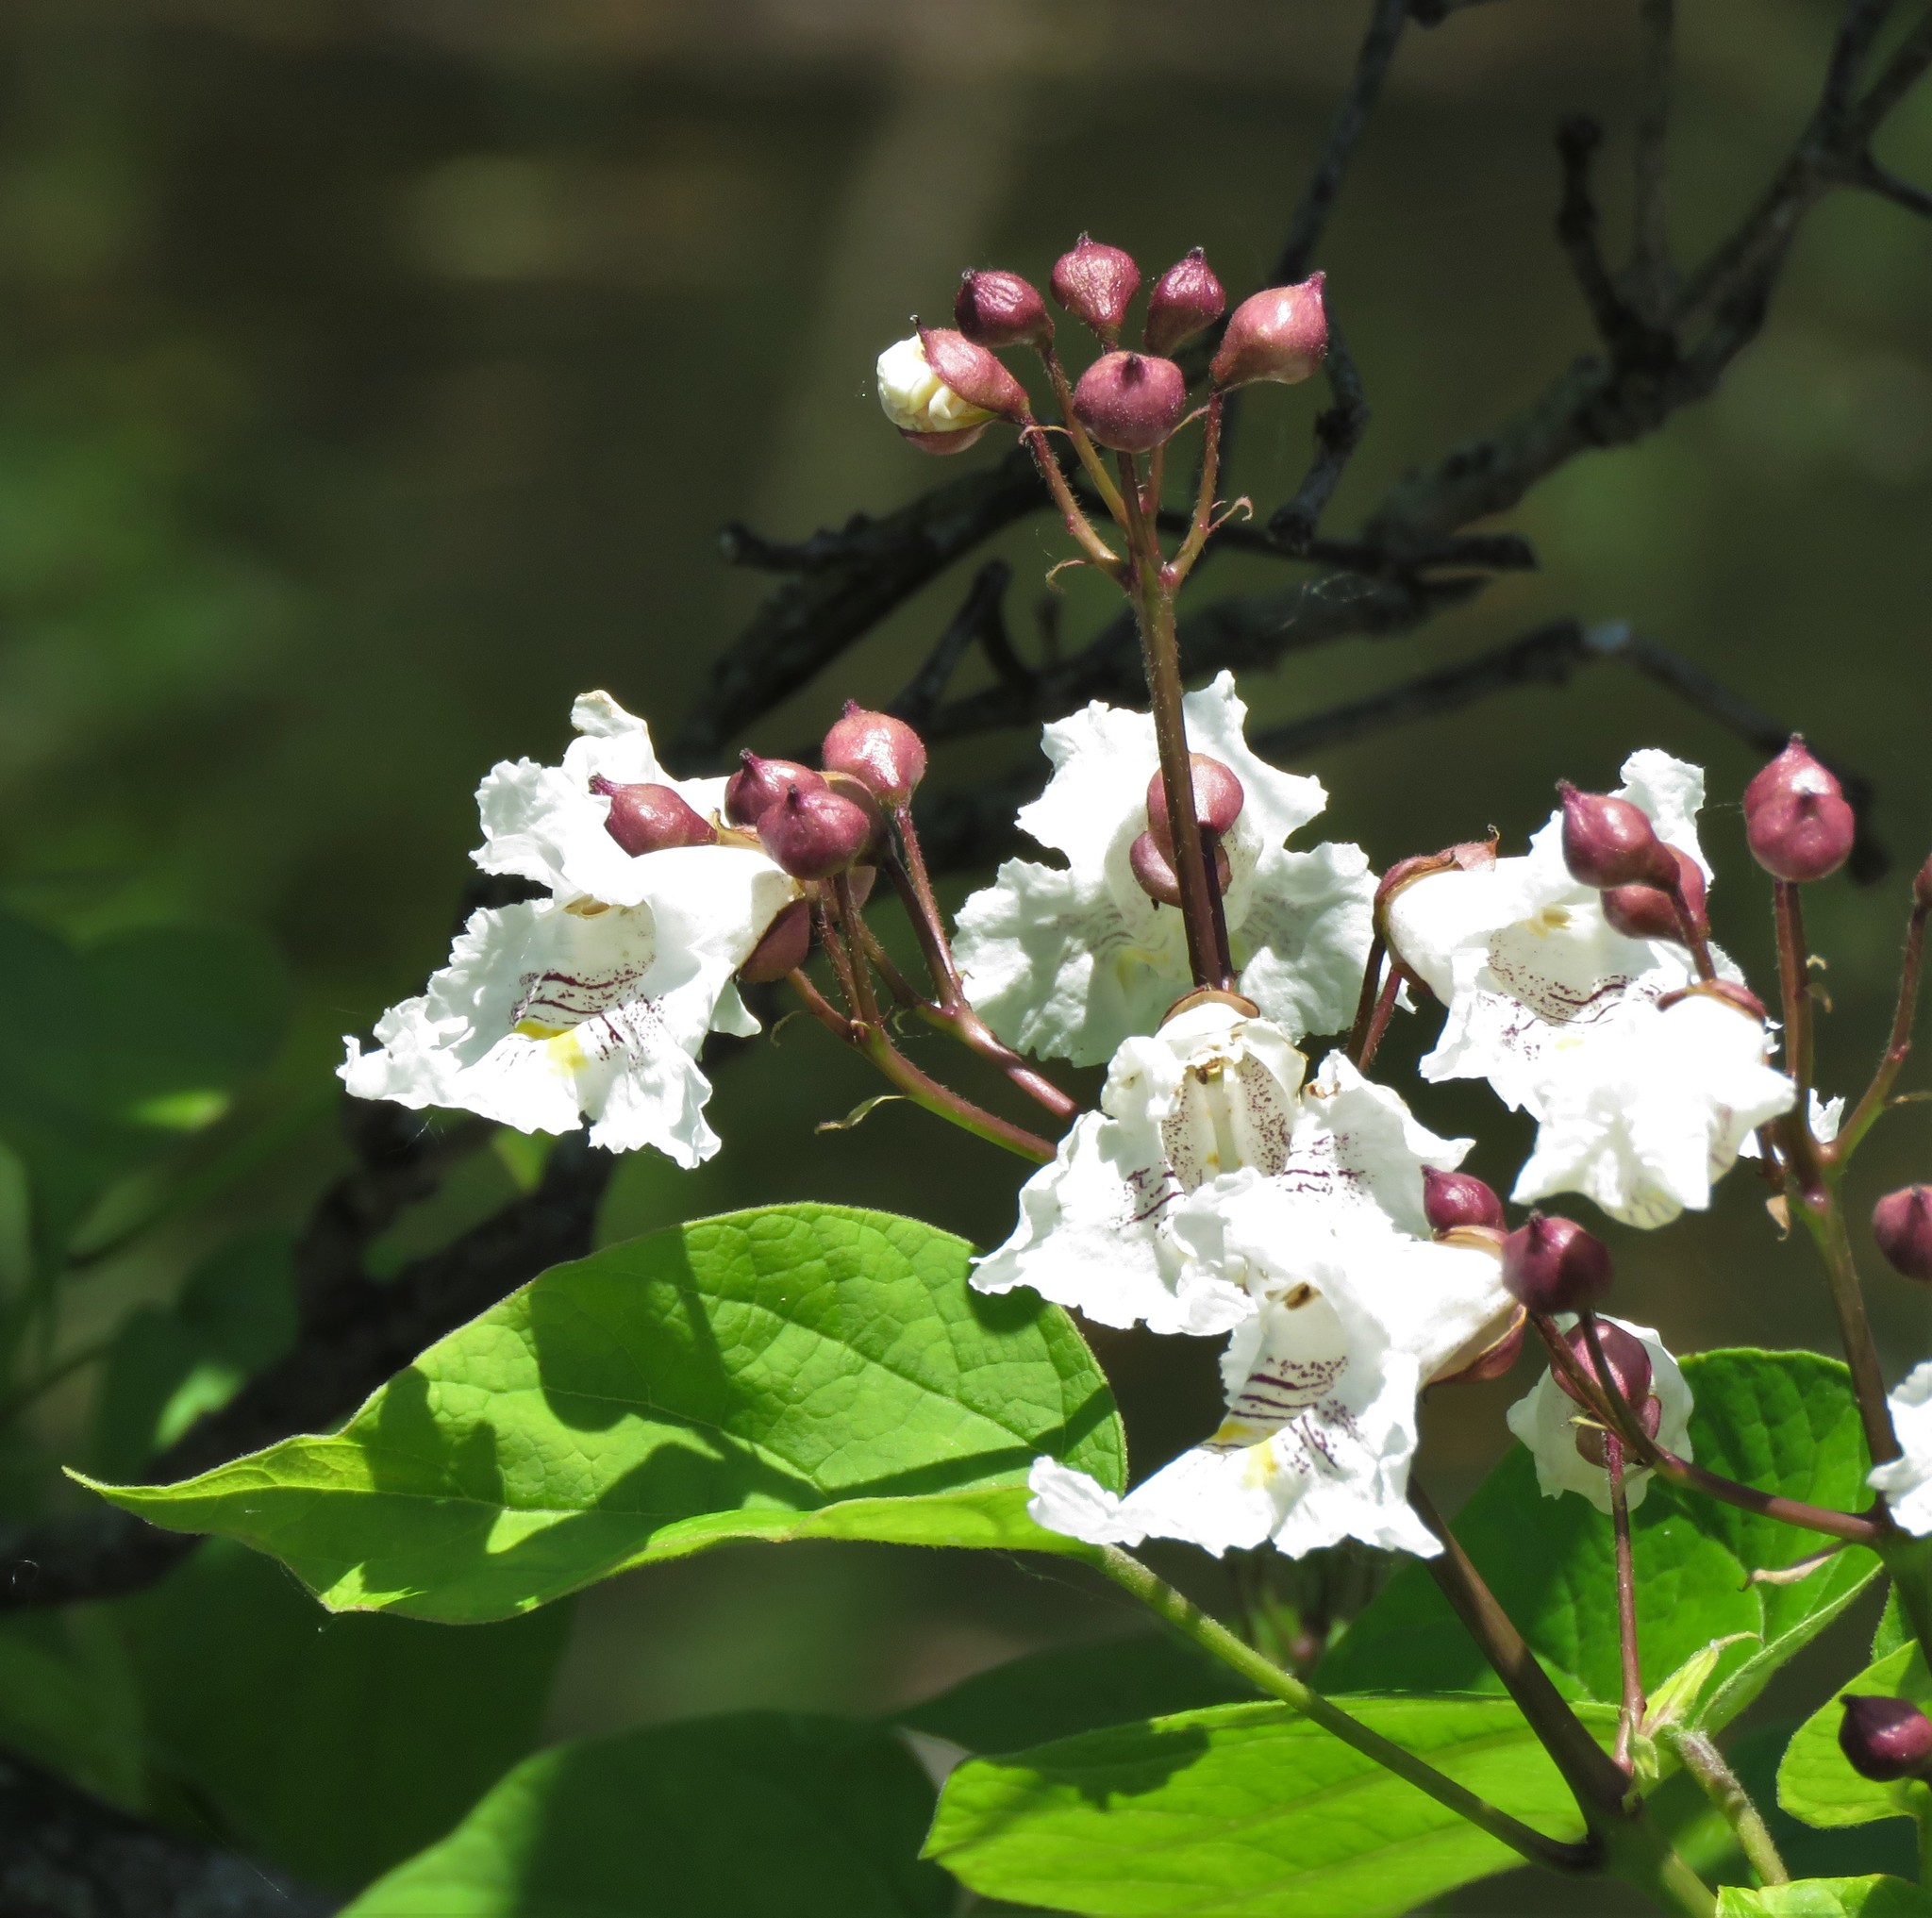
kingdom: Plantae
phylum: Tracheophyta
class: Magnoliopsida
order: Lamiales
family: Bignoniaceae
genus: Catalpa
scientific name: Catalpa bignonioides
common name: Southern catalpa
